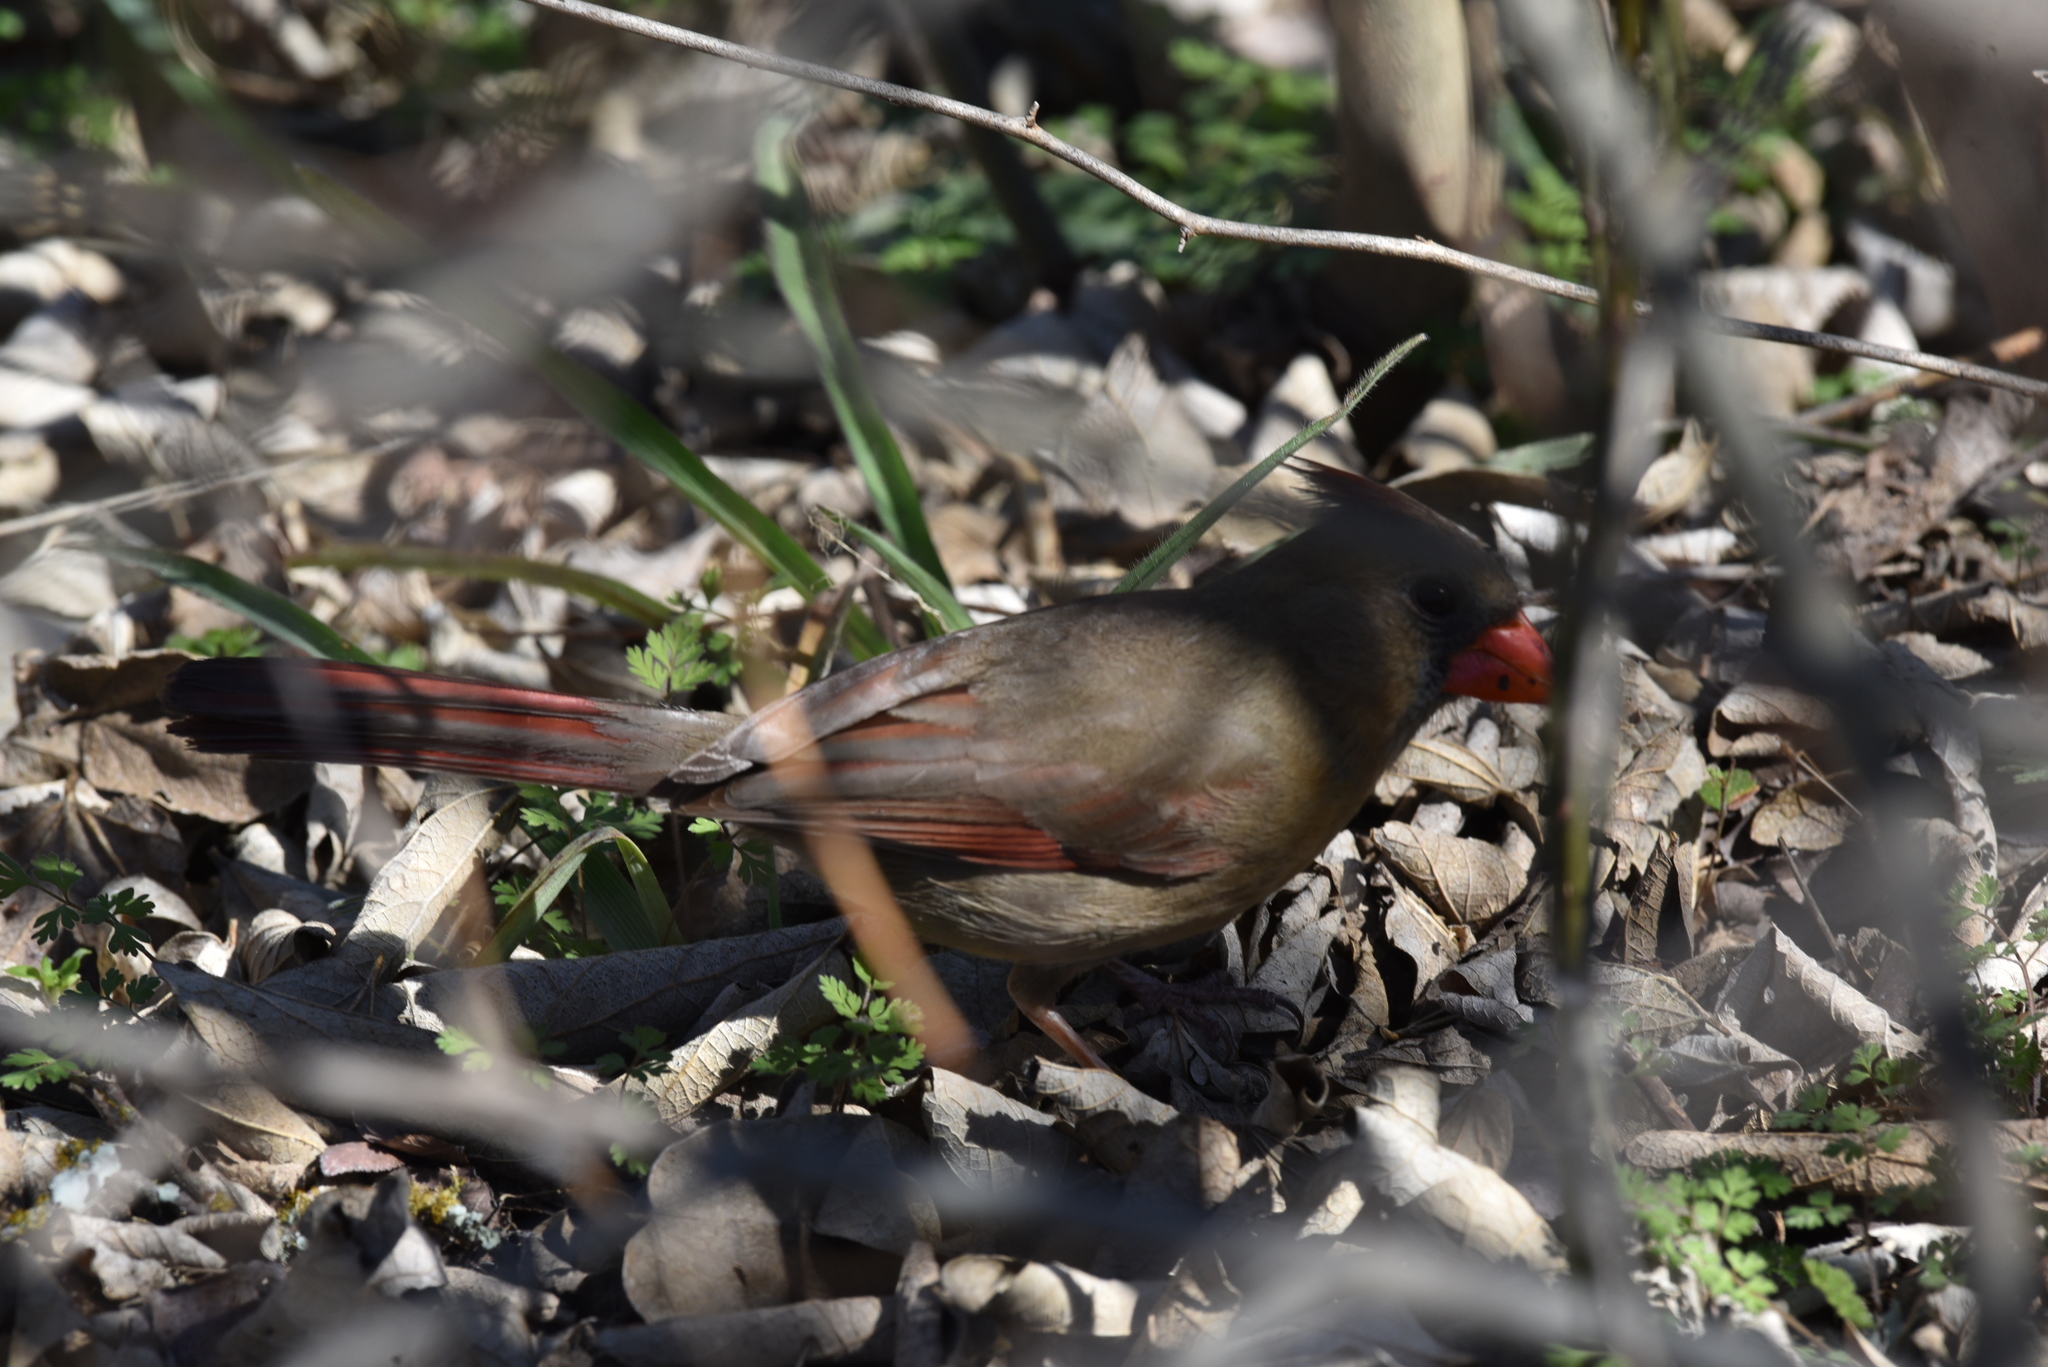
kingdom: Animalia
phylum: Chordata
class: Aves
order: Passeriformes
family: Cardinalidae
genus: Cardinalis
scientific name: Cardinalis cardinalis
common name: Northern cardinal
